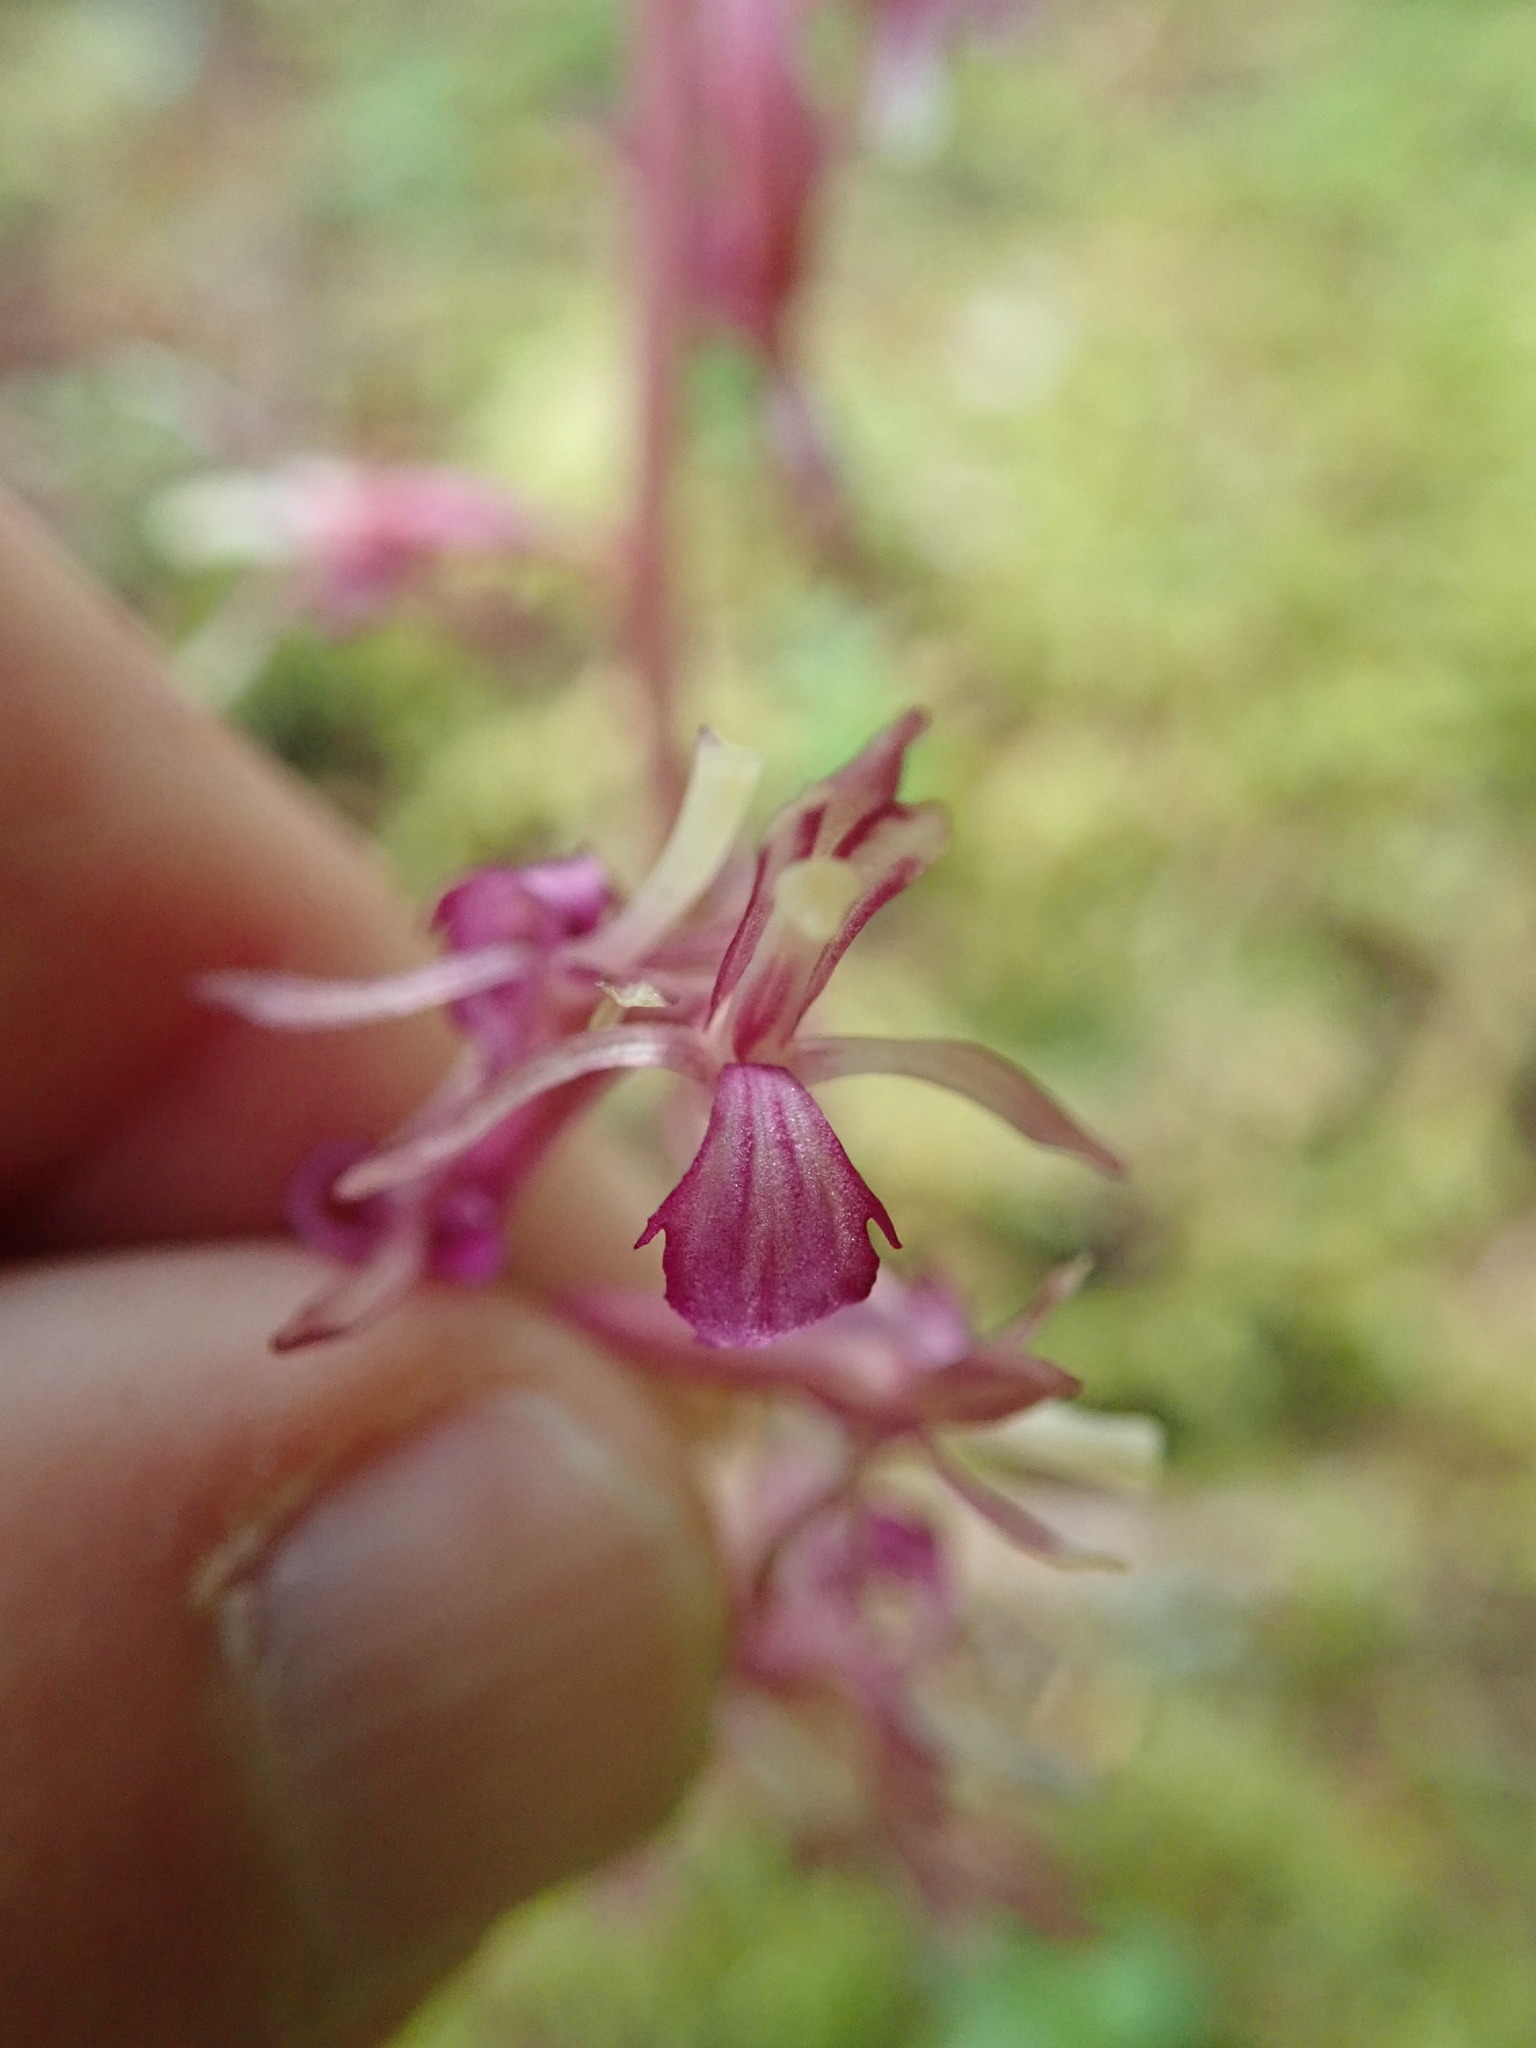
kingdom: Plantae
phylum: Tracheophyta
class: Liliopsida
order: Asparagales
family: Orchidaceae
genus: Corallorhiza
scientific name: Corallorhiza mertensiana
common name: Pacific coralroot
